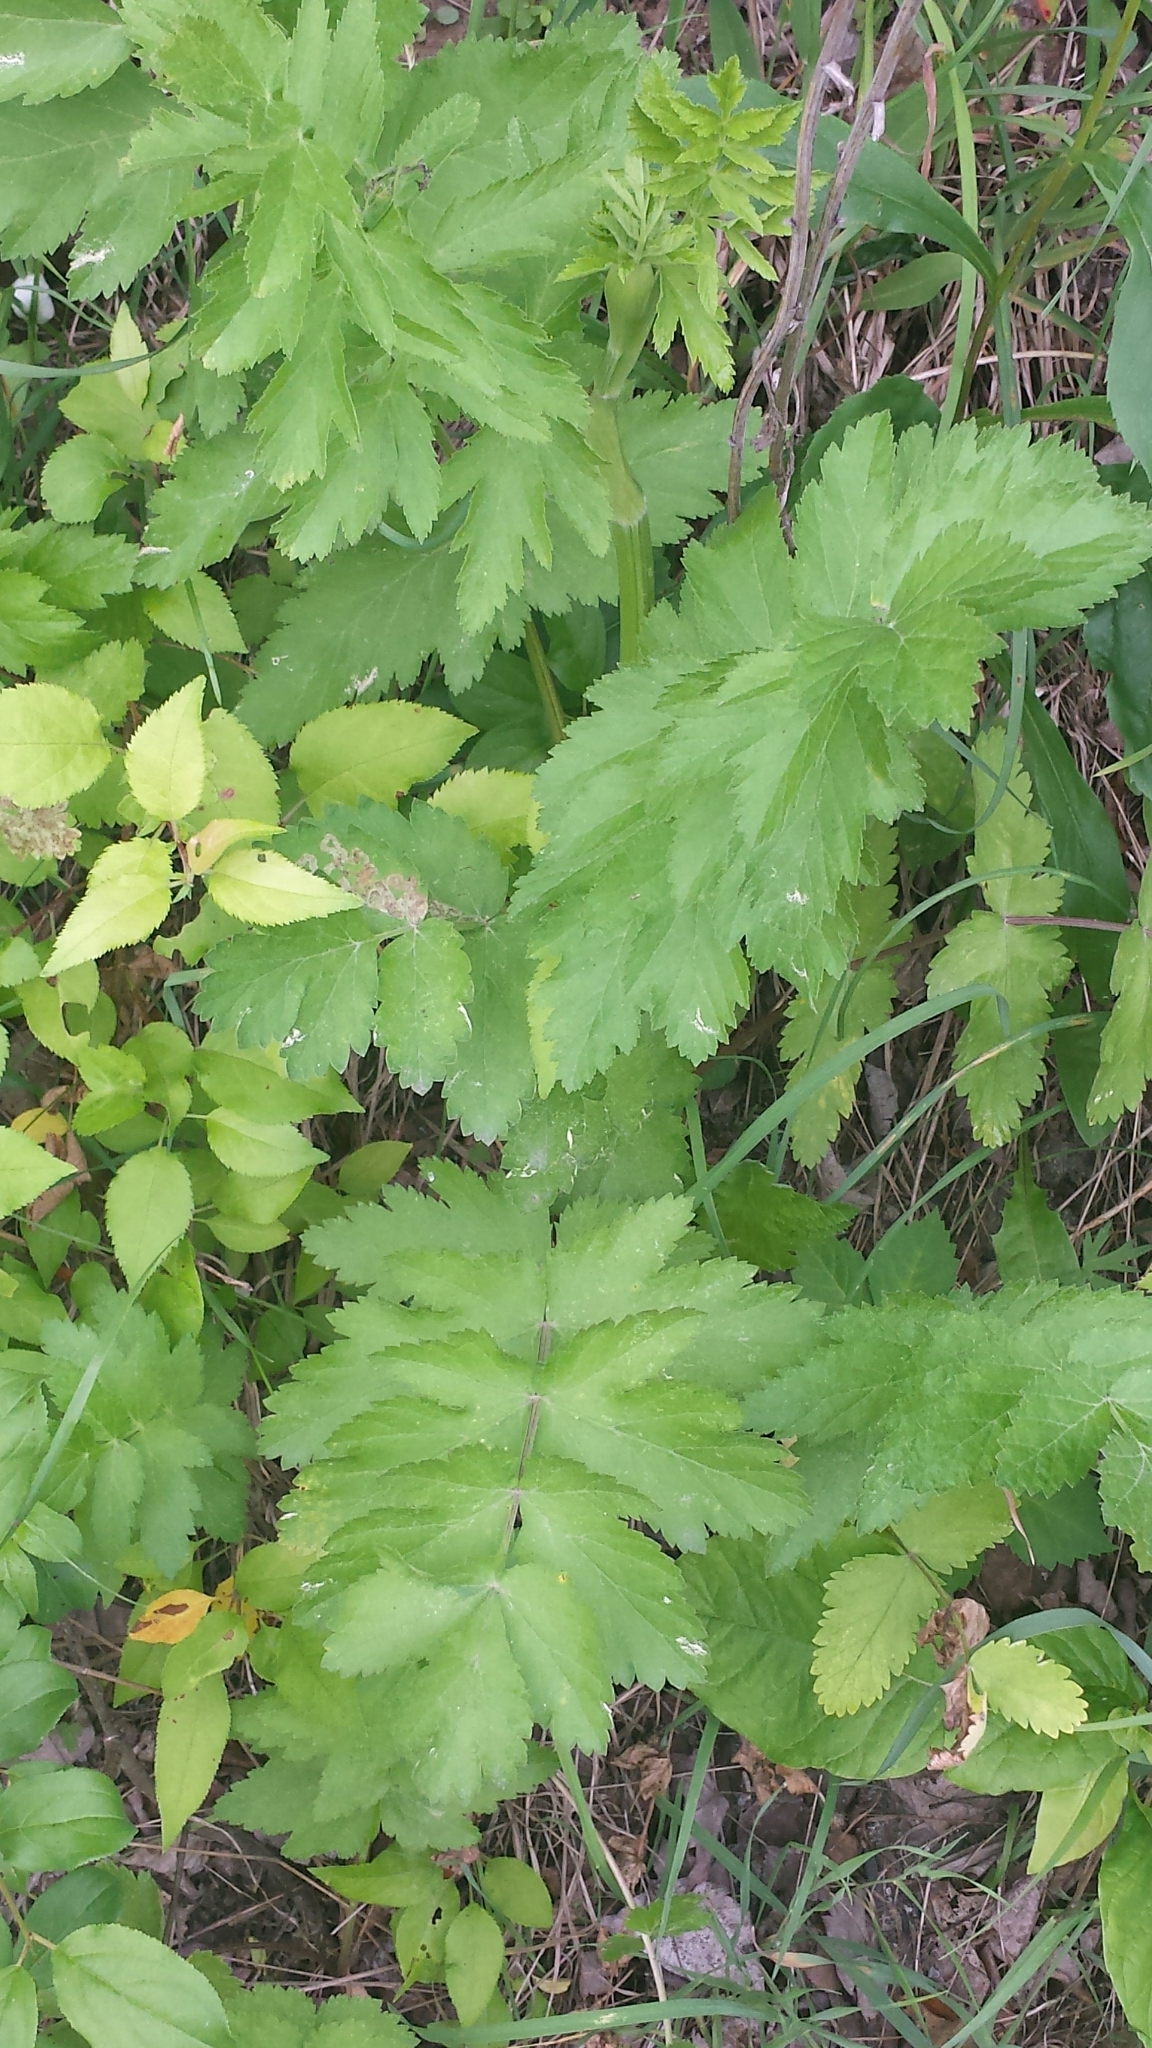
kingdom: Plantae
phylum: Tracheophyta
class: Magnoliopsida
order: Apiales
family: Apiaceae
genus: Pastinaca
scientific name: Pastinaca sativa
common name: Wild parsnip
